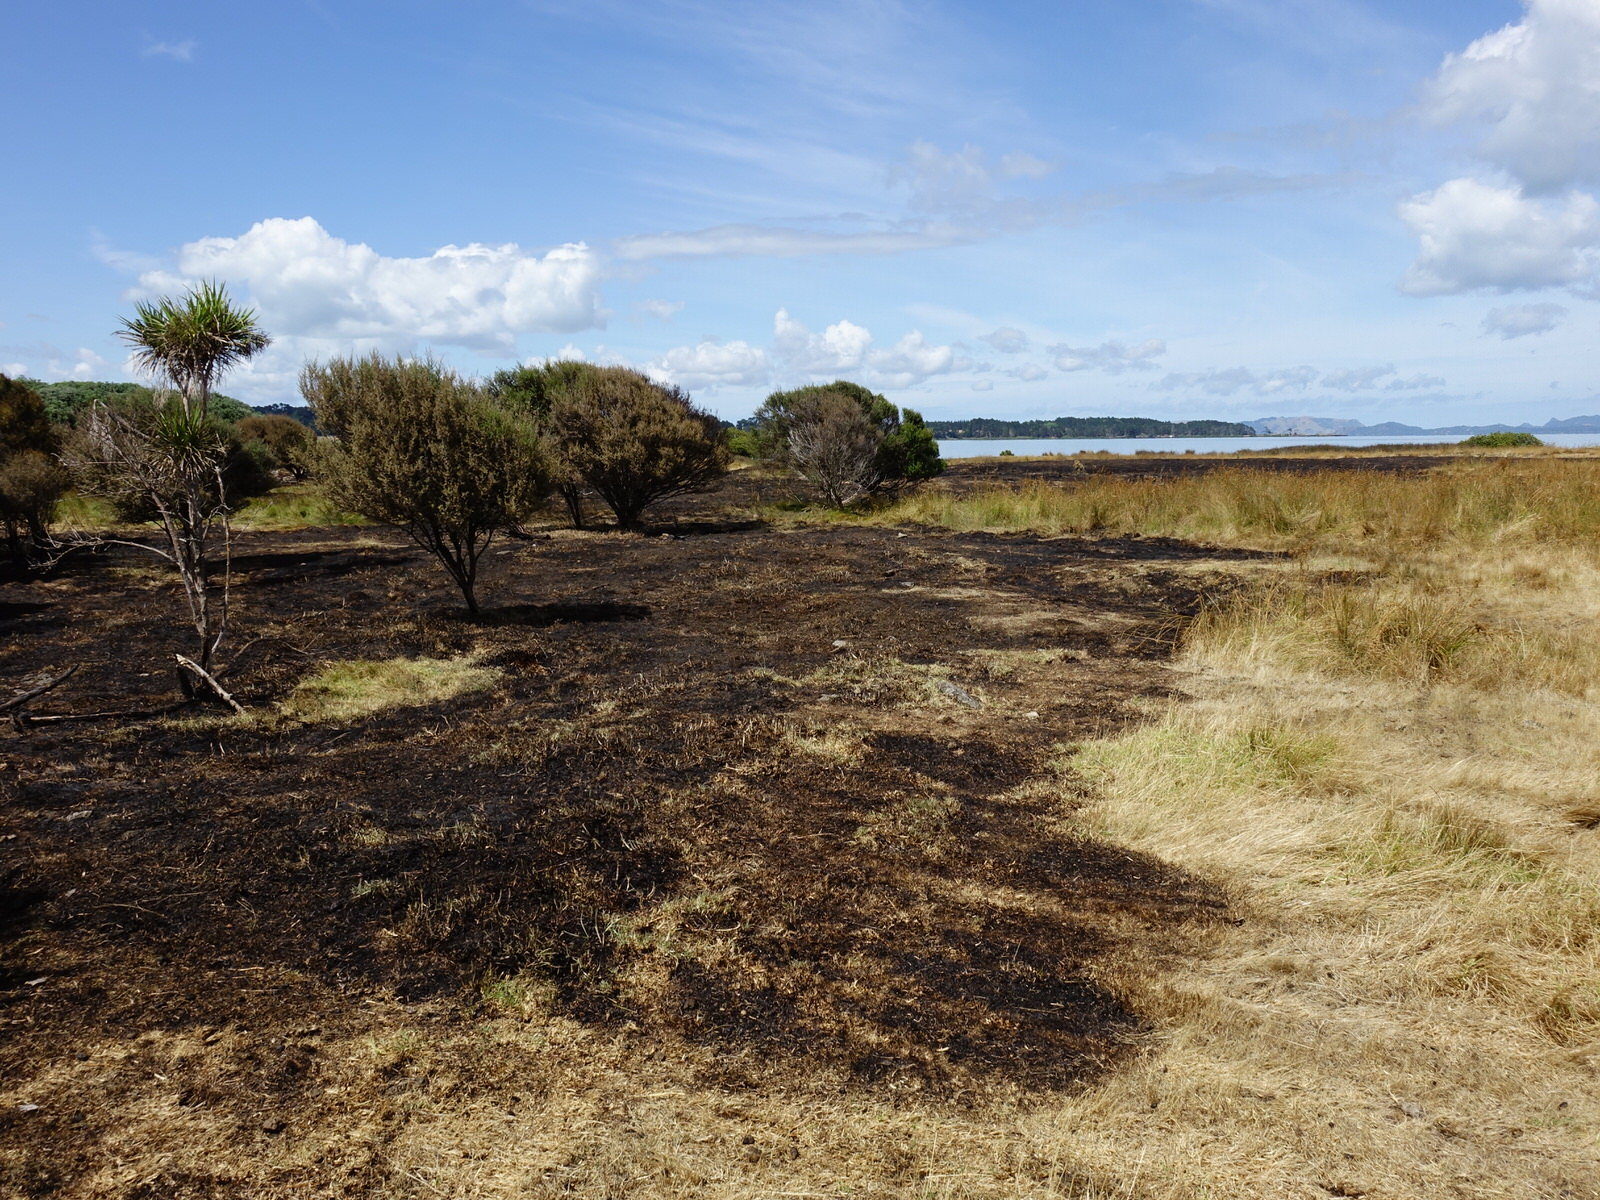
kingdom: Animalia
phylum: Chordata
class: Aves
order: Passeriformes
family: Meliphagidae
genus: Prosthemadera
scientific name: Prosthemadera novaeseelandiae
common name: Tui
